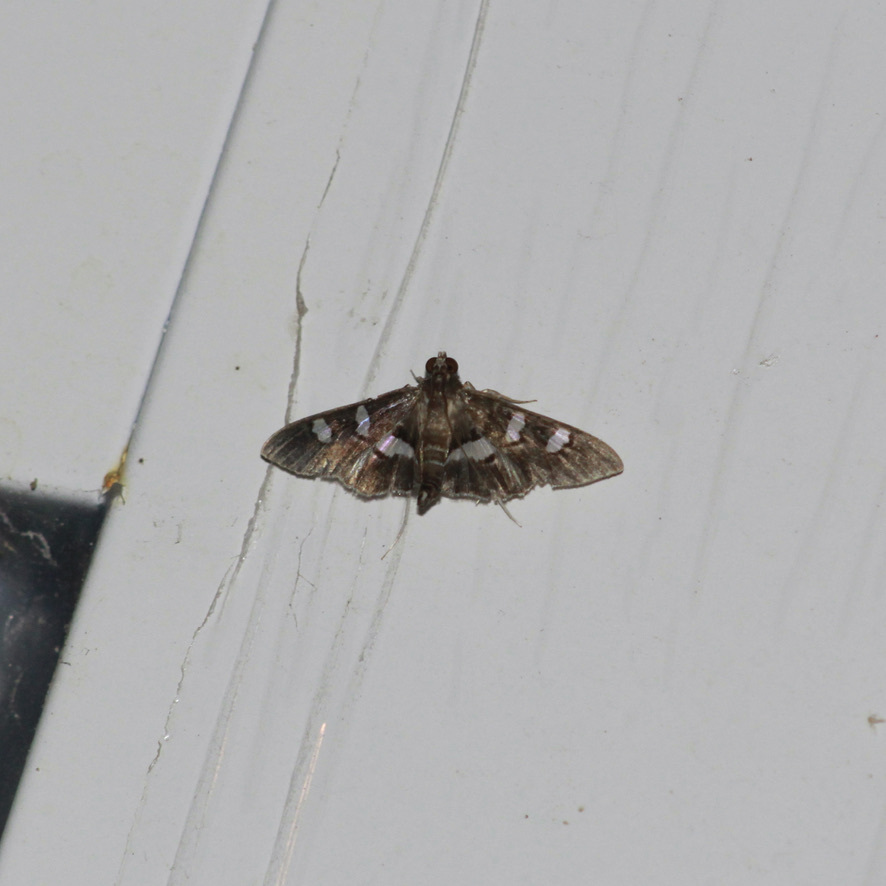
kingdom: Animalia
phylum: Arthropoda
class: Insecta
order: Lepidoptera
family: Crambidae
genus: Desmia
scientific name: Desmia tages
